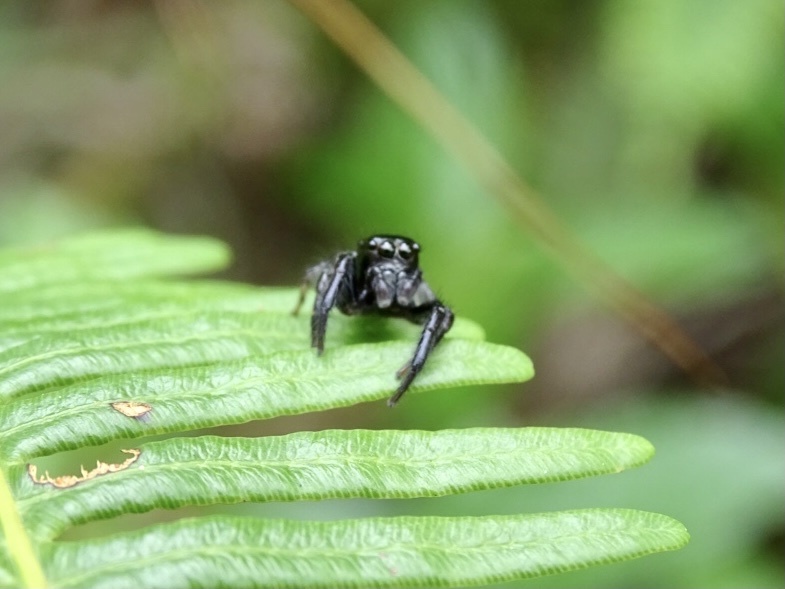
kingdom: Animalia
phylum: Arthropoda
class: Arachnida
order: Araneae
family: Salticidae
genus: Ptocasius
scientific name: Ptocasius strupifer
